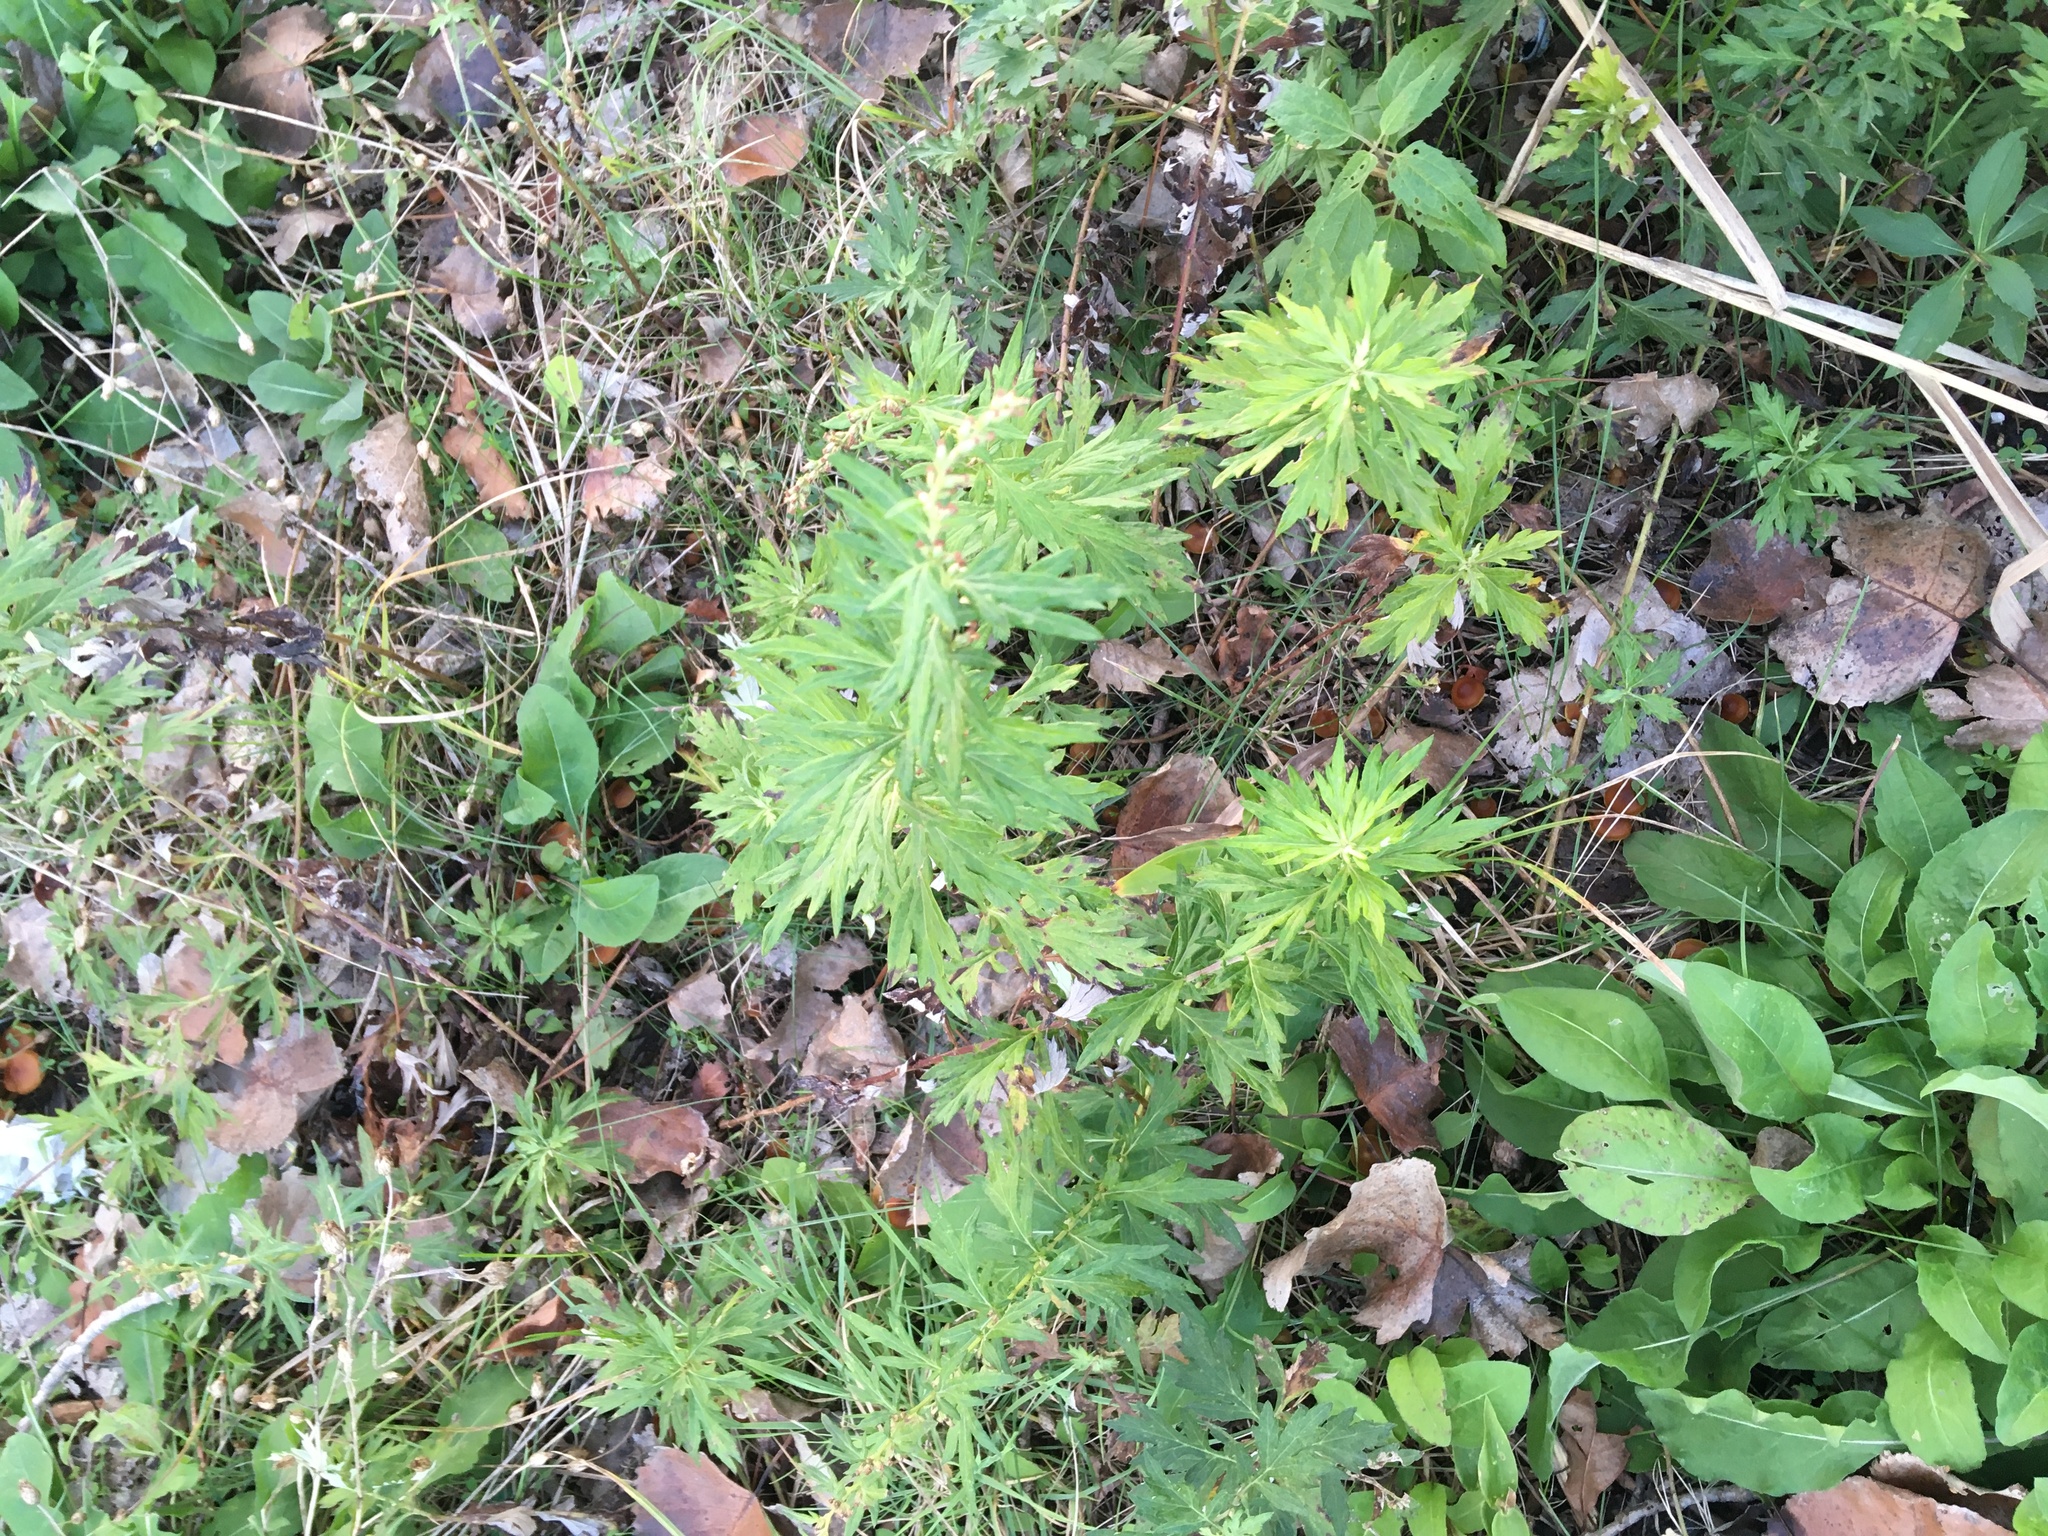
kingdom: Plantae
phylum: Tracheophyta
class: Magnoliopsida
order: Asterales
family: Asteraceae
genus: Artemisia
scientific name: Artemisia vulgaris
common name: Mugwort
